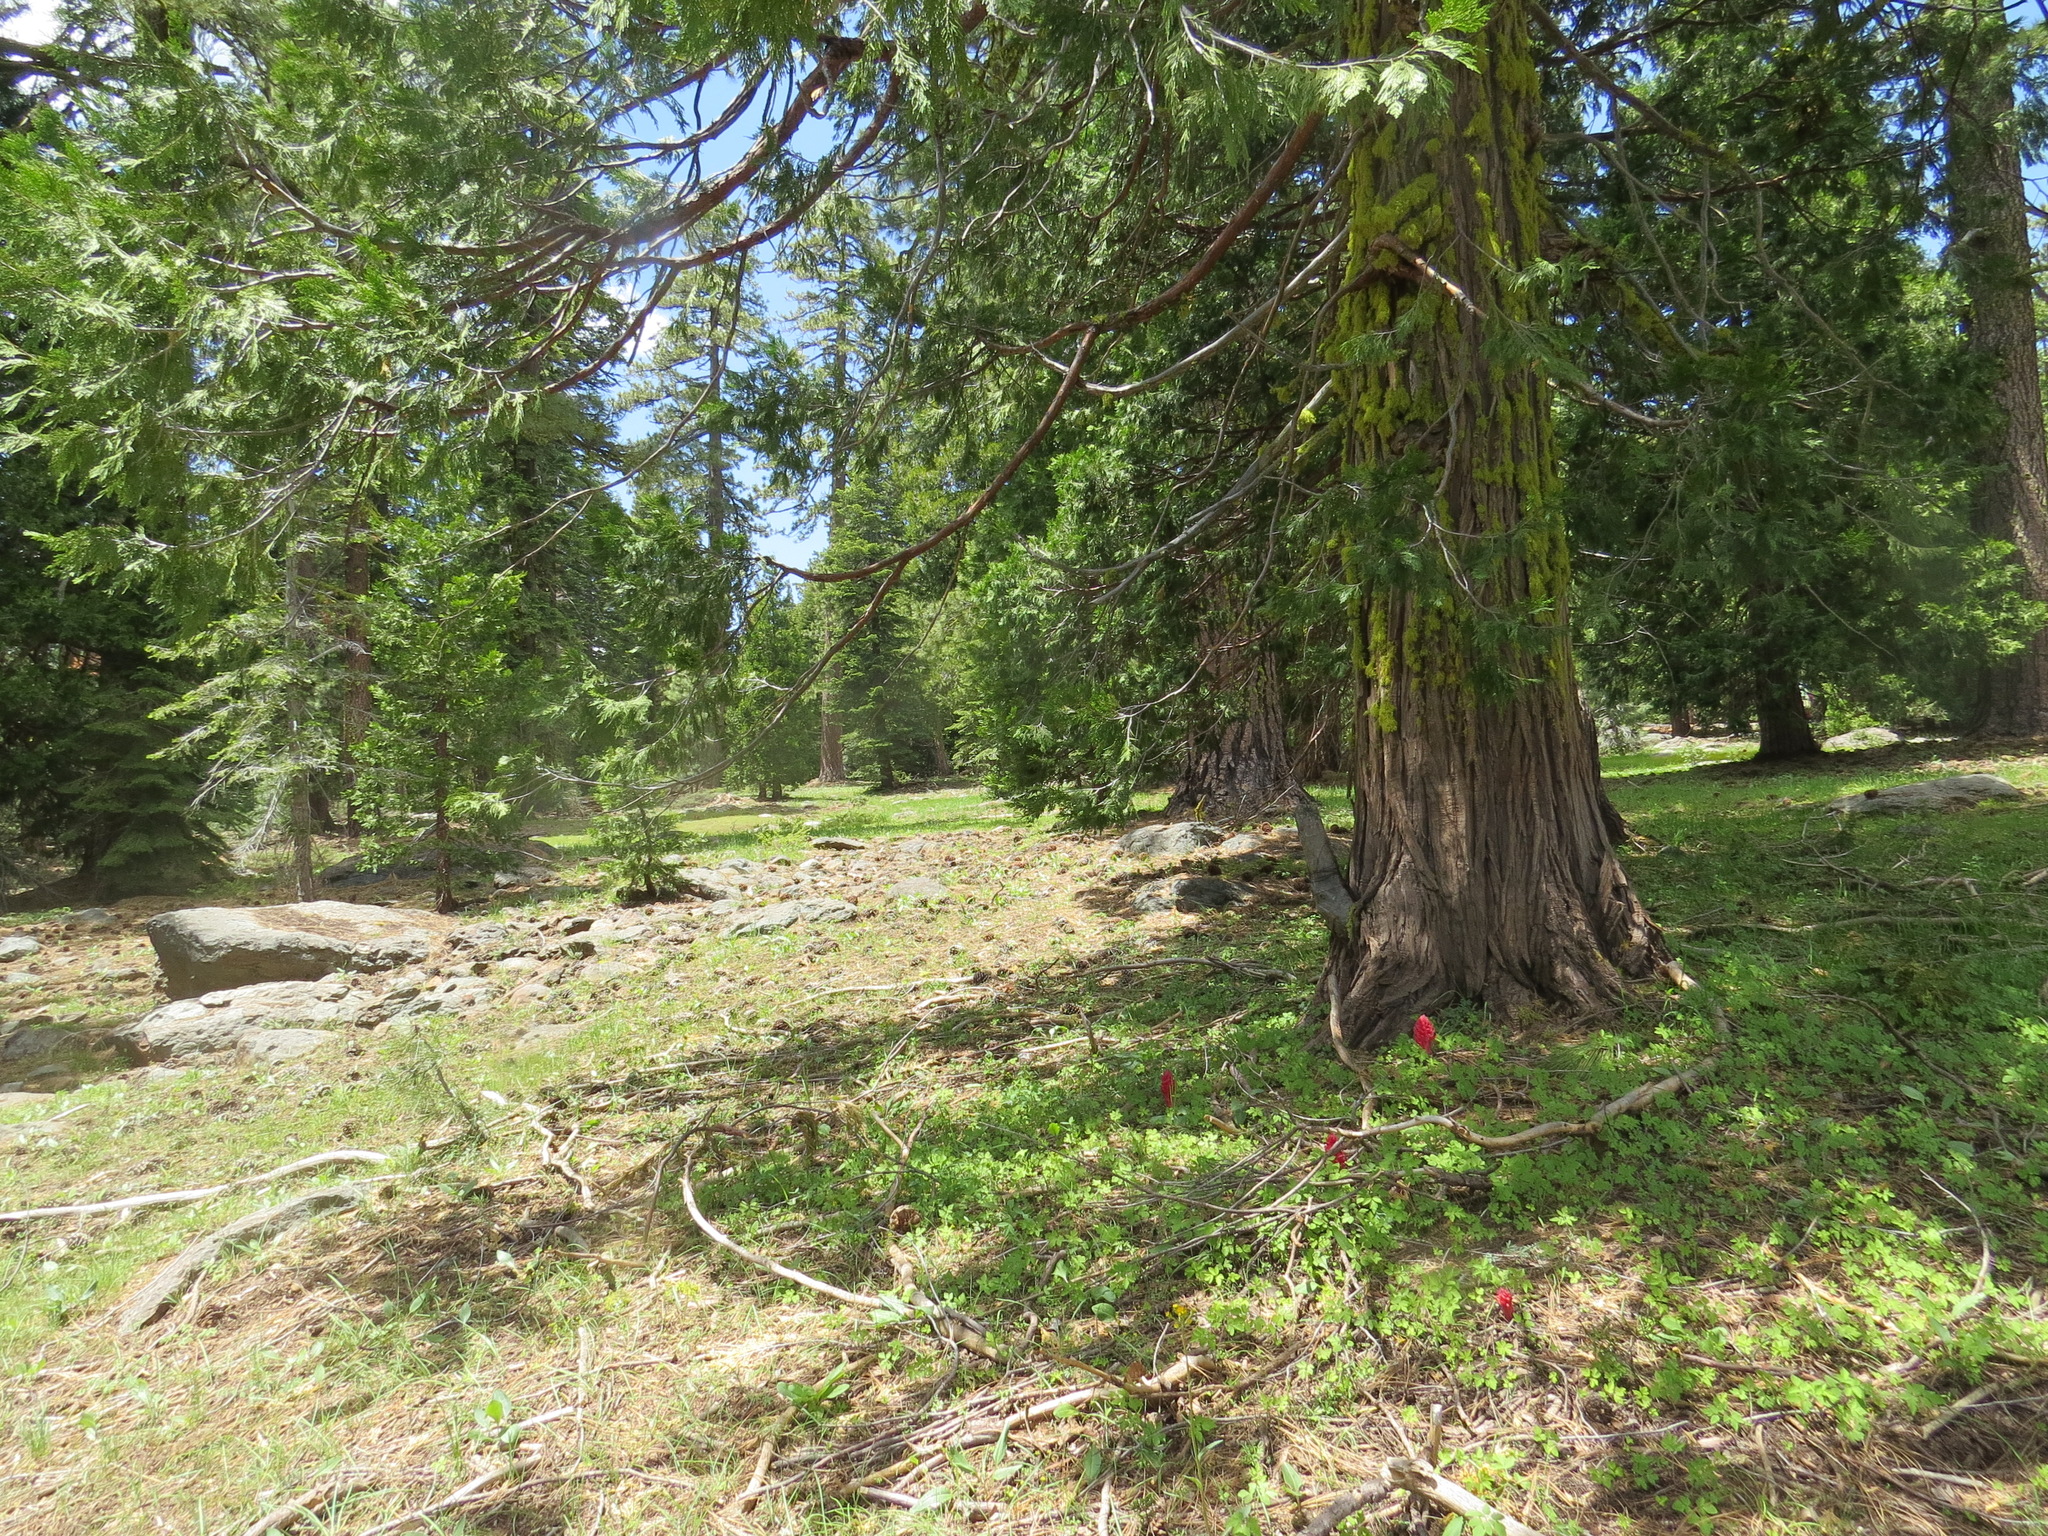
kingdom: Plantae
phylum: Tracheophyta
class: Pinopsida
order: Pinales
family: Cupressaceae
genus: Calocedrus
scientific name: Calocedrus decurrens
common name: Californian incense-cedar
